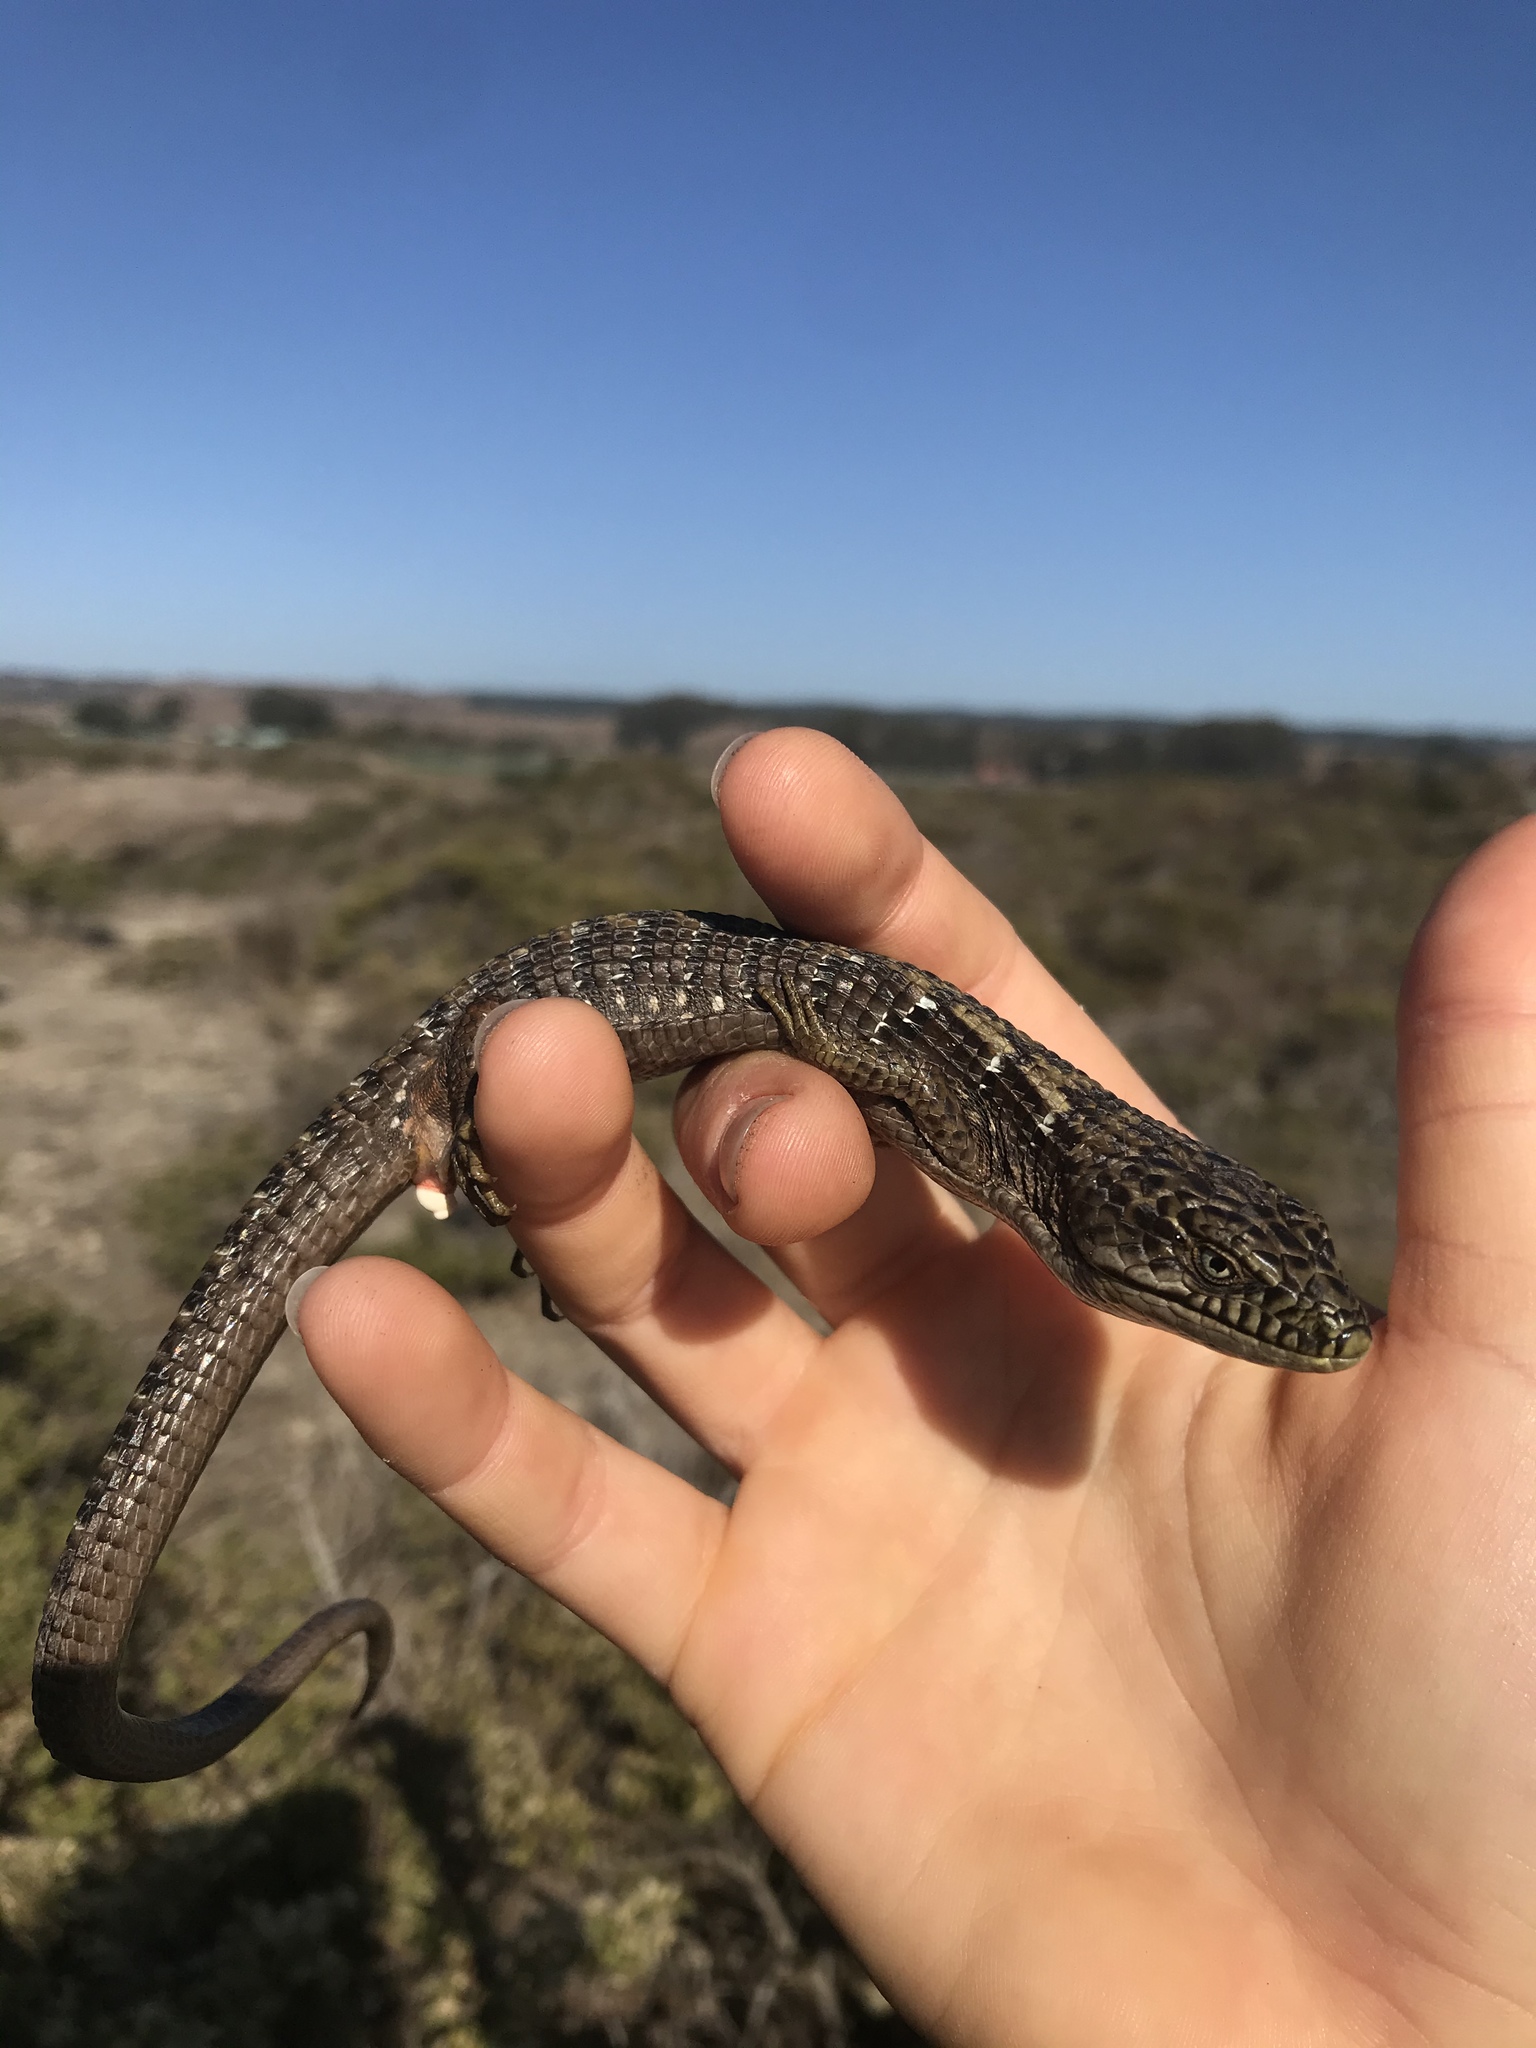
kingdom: Animalia
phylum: Chordata
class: Squamata
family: Anguidae
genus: Elgaria
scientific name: Elgaria multicarinata
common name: Southern alligator lizard
